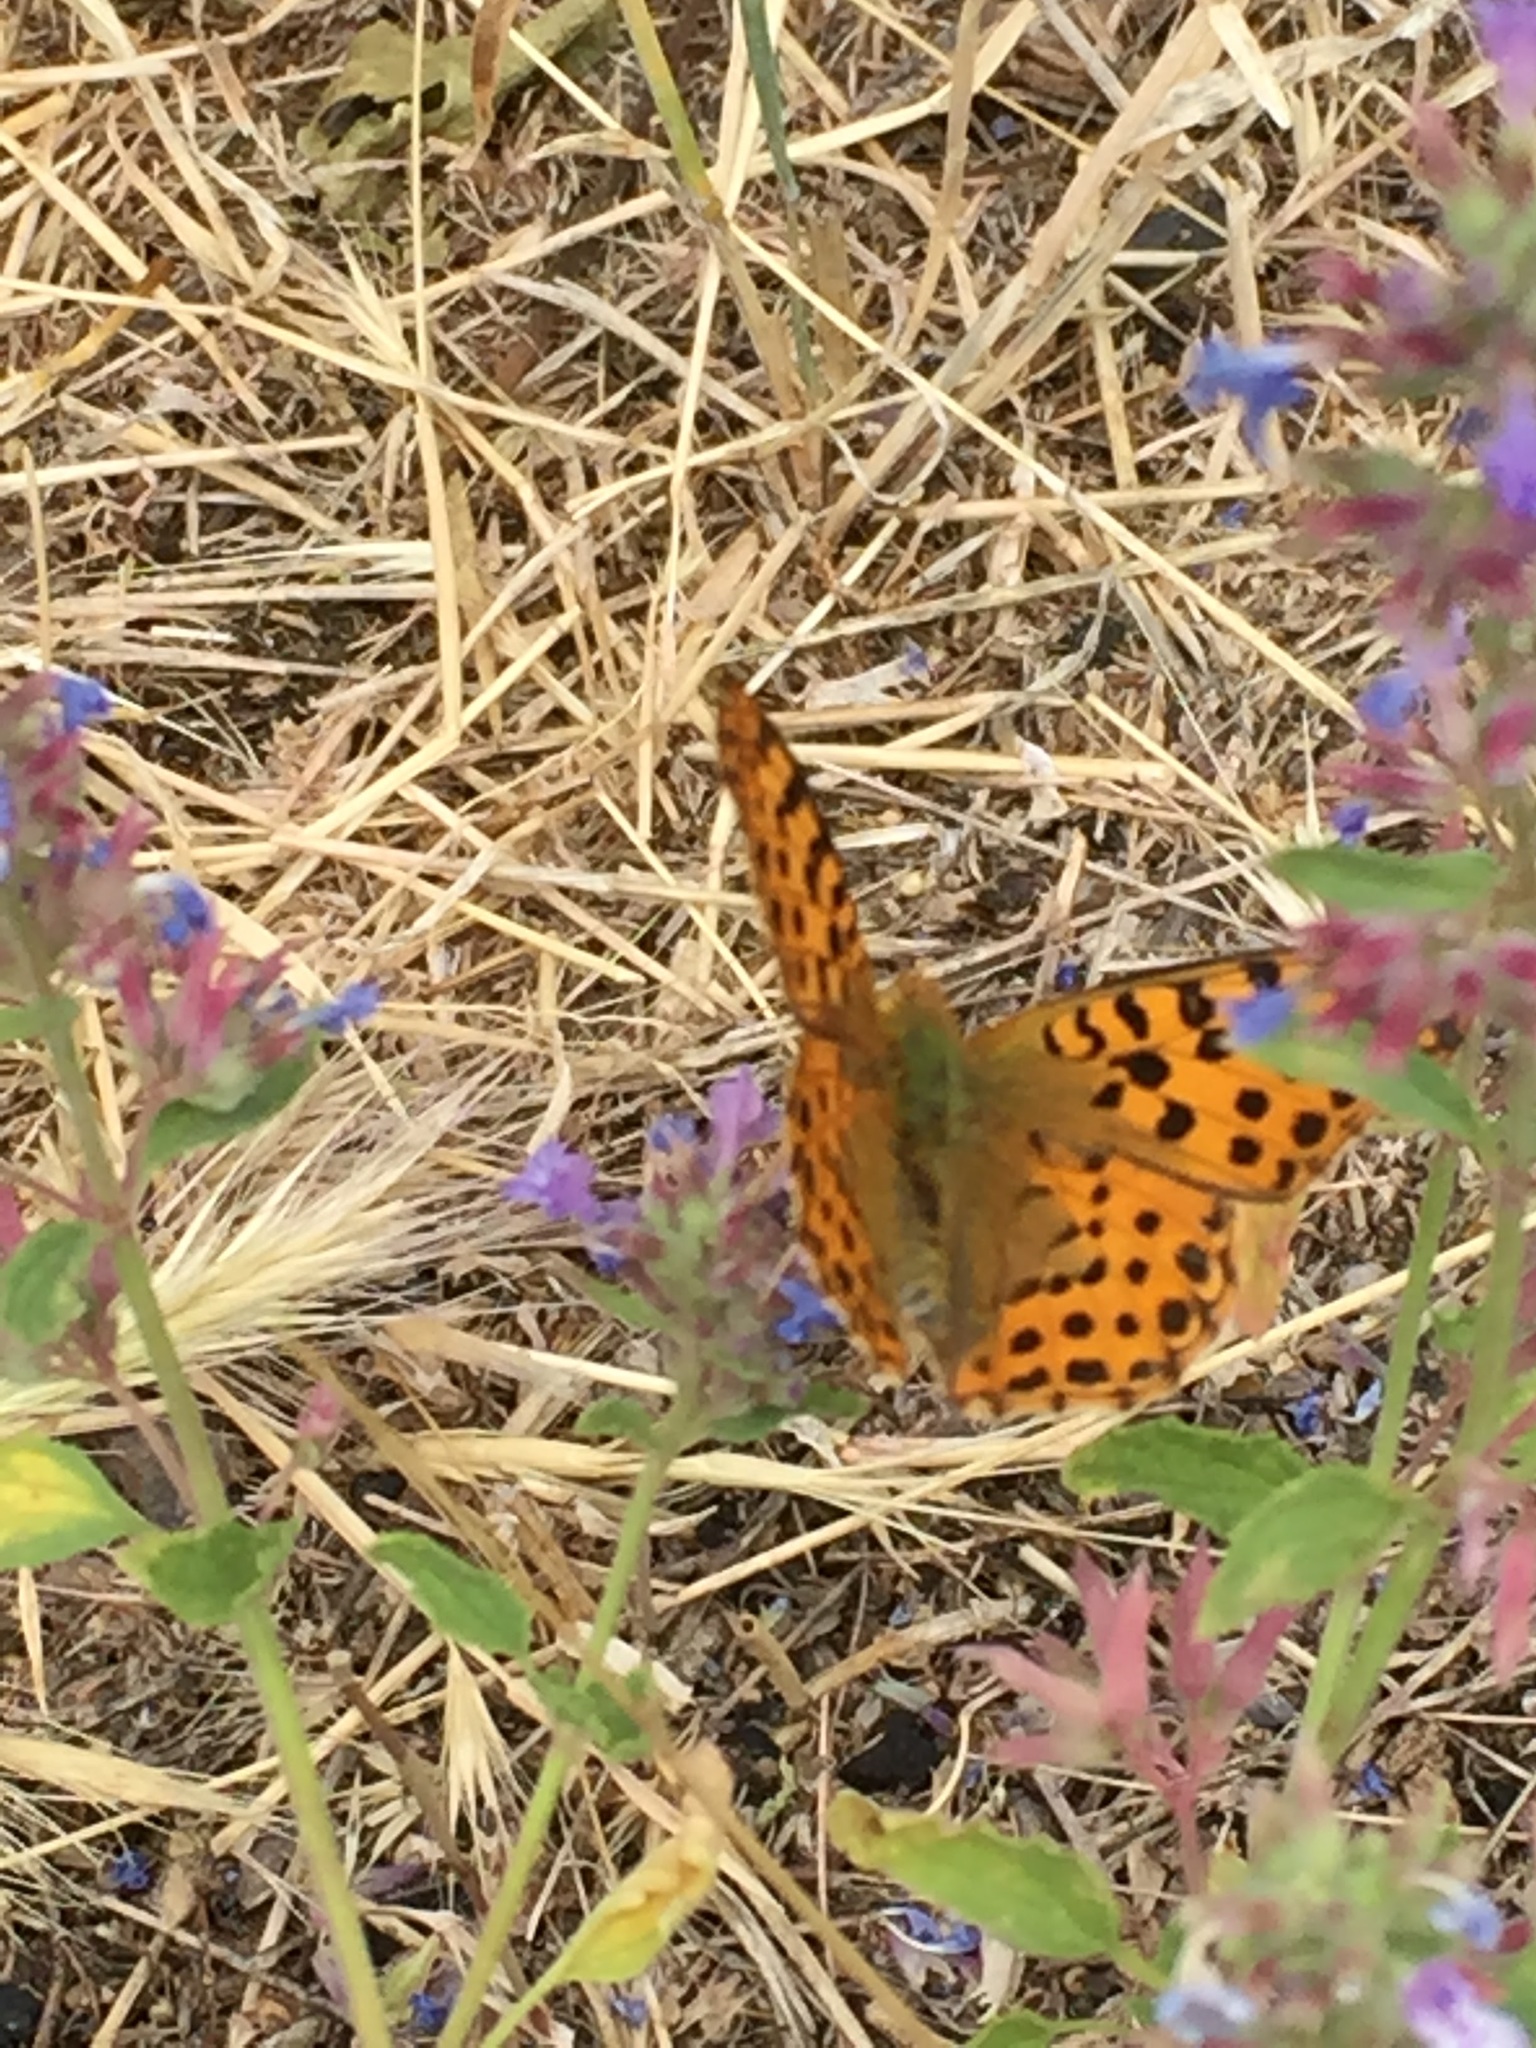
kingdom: Animalia
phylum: Arthropoda
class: Insecta
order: Lepidoptera
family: Nymphalidae
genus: Issoria
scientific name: Issoria lathonia
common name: Queen of spain fritillary
